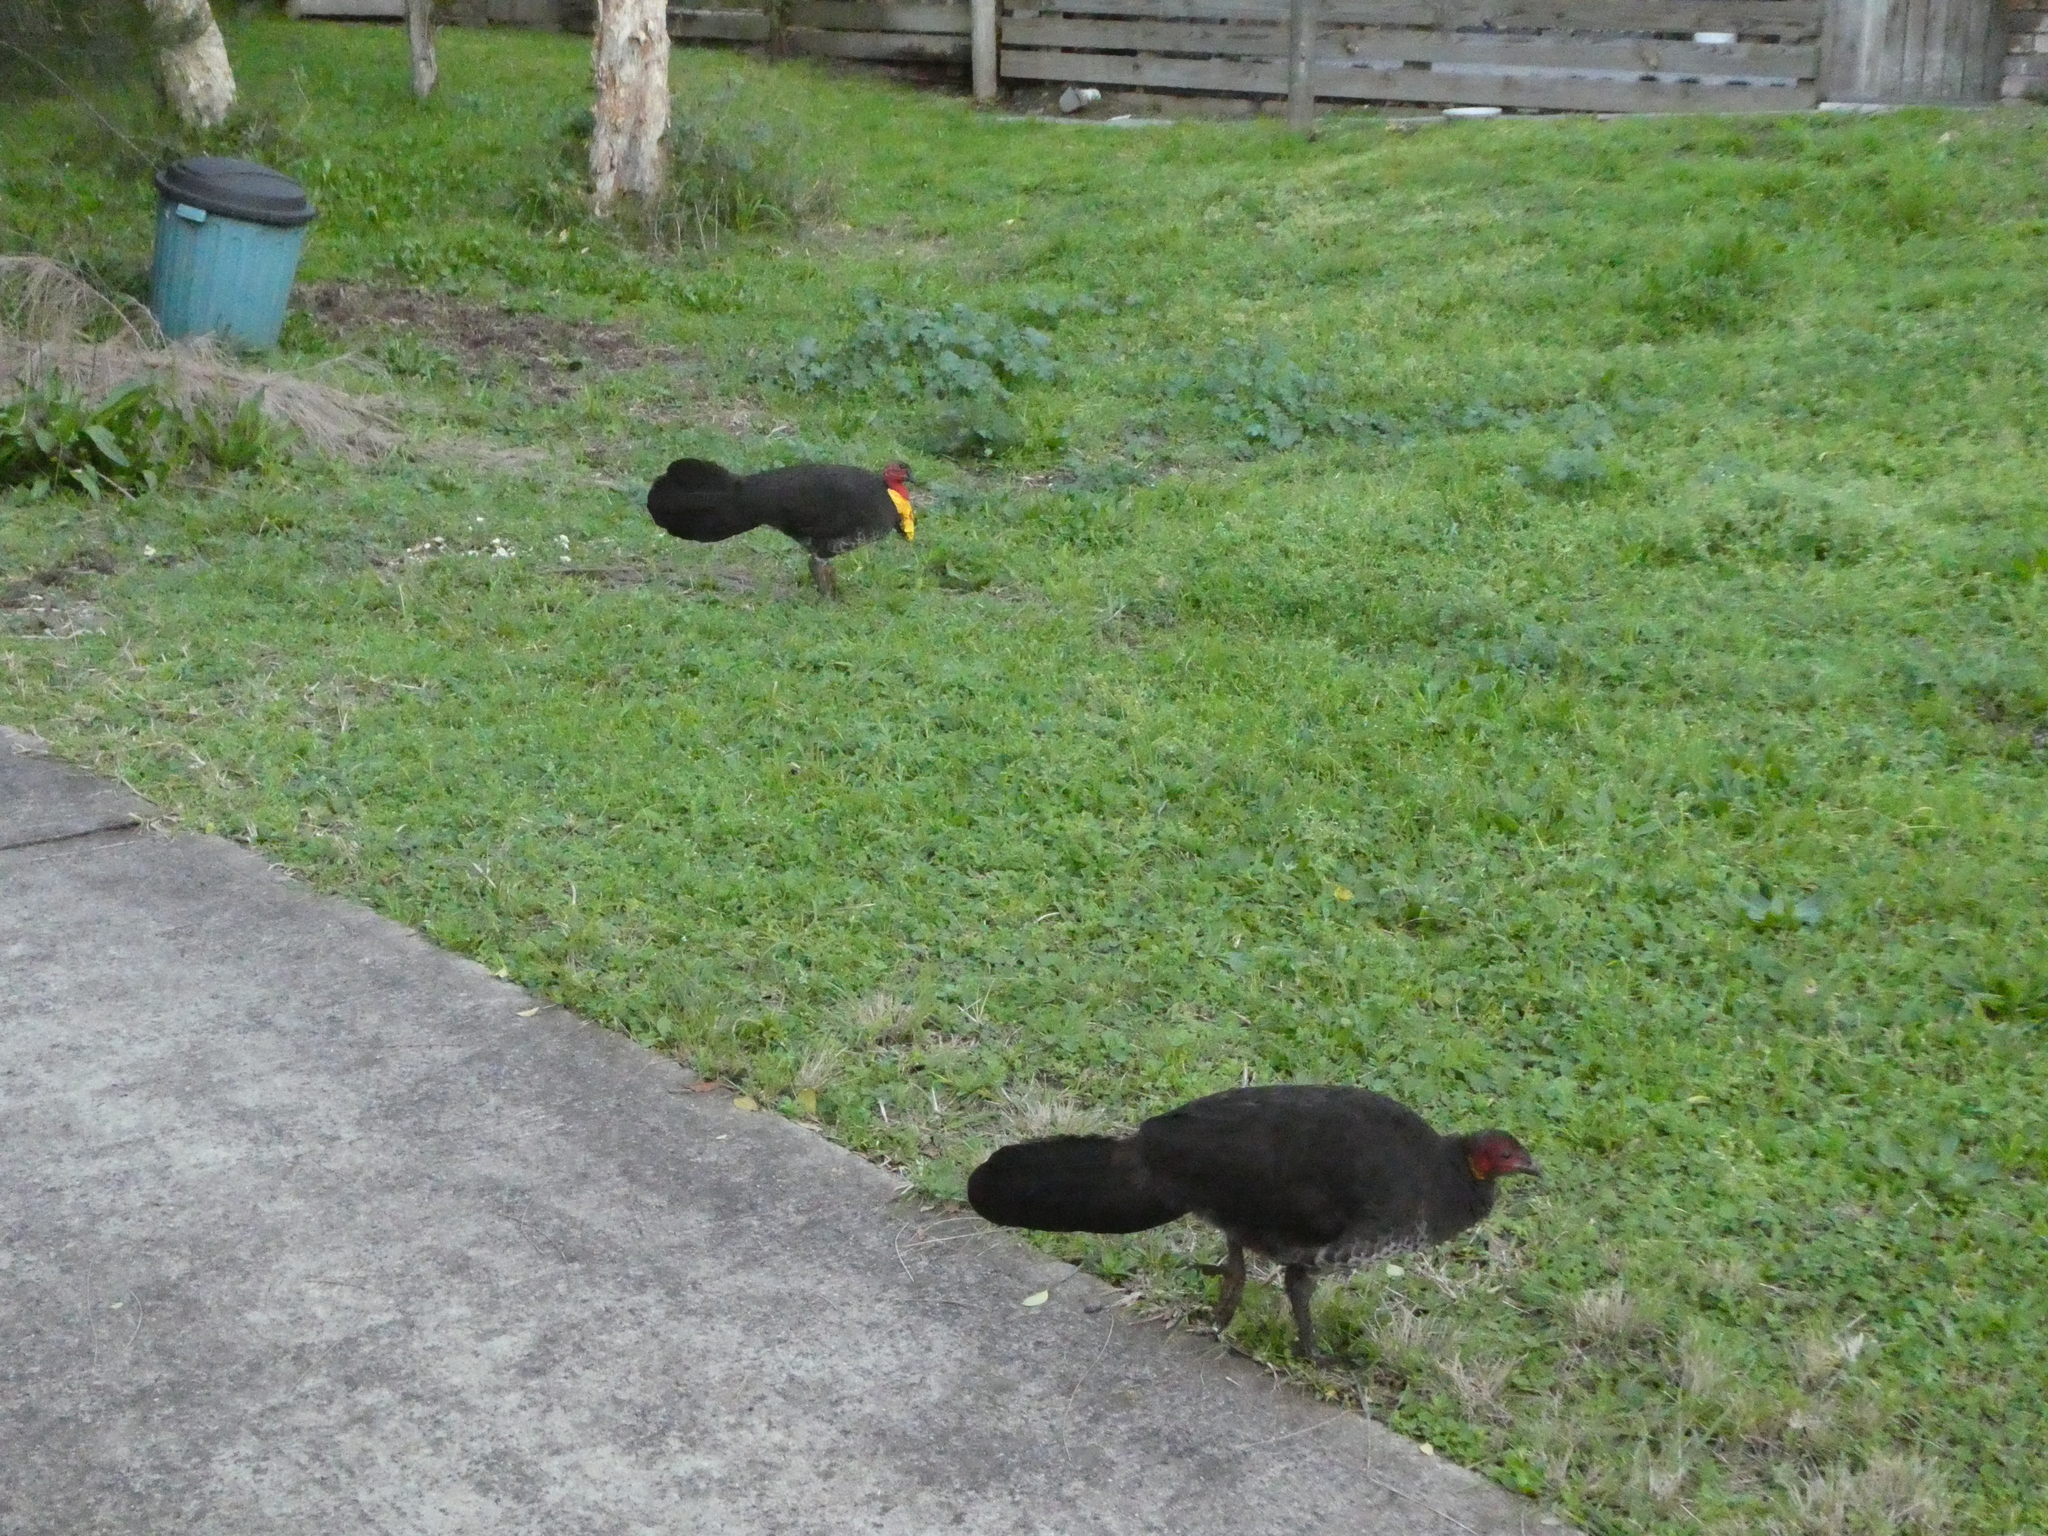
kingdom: Animalia
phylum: Chordata
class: Aves
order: Galliformes
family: Megapodiidae
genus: Alectura
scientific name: Alectura lathami
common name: Australian brushturkey
